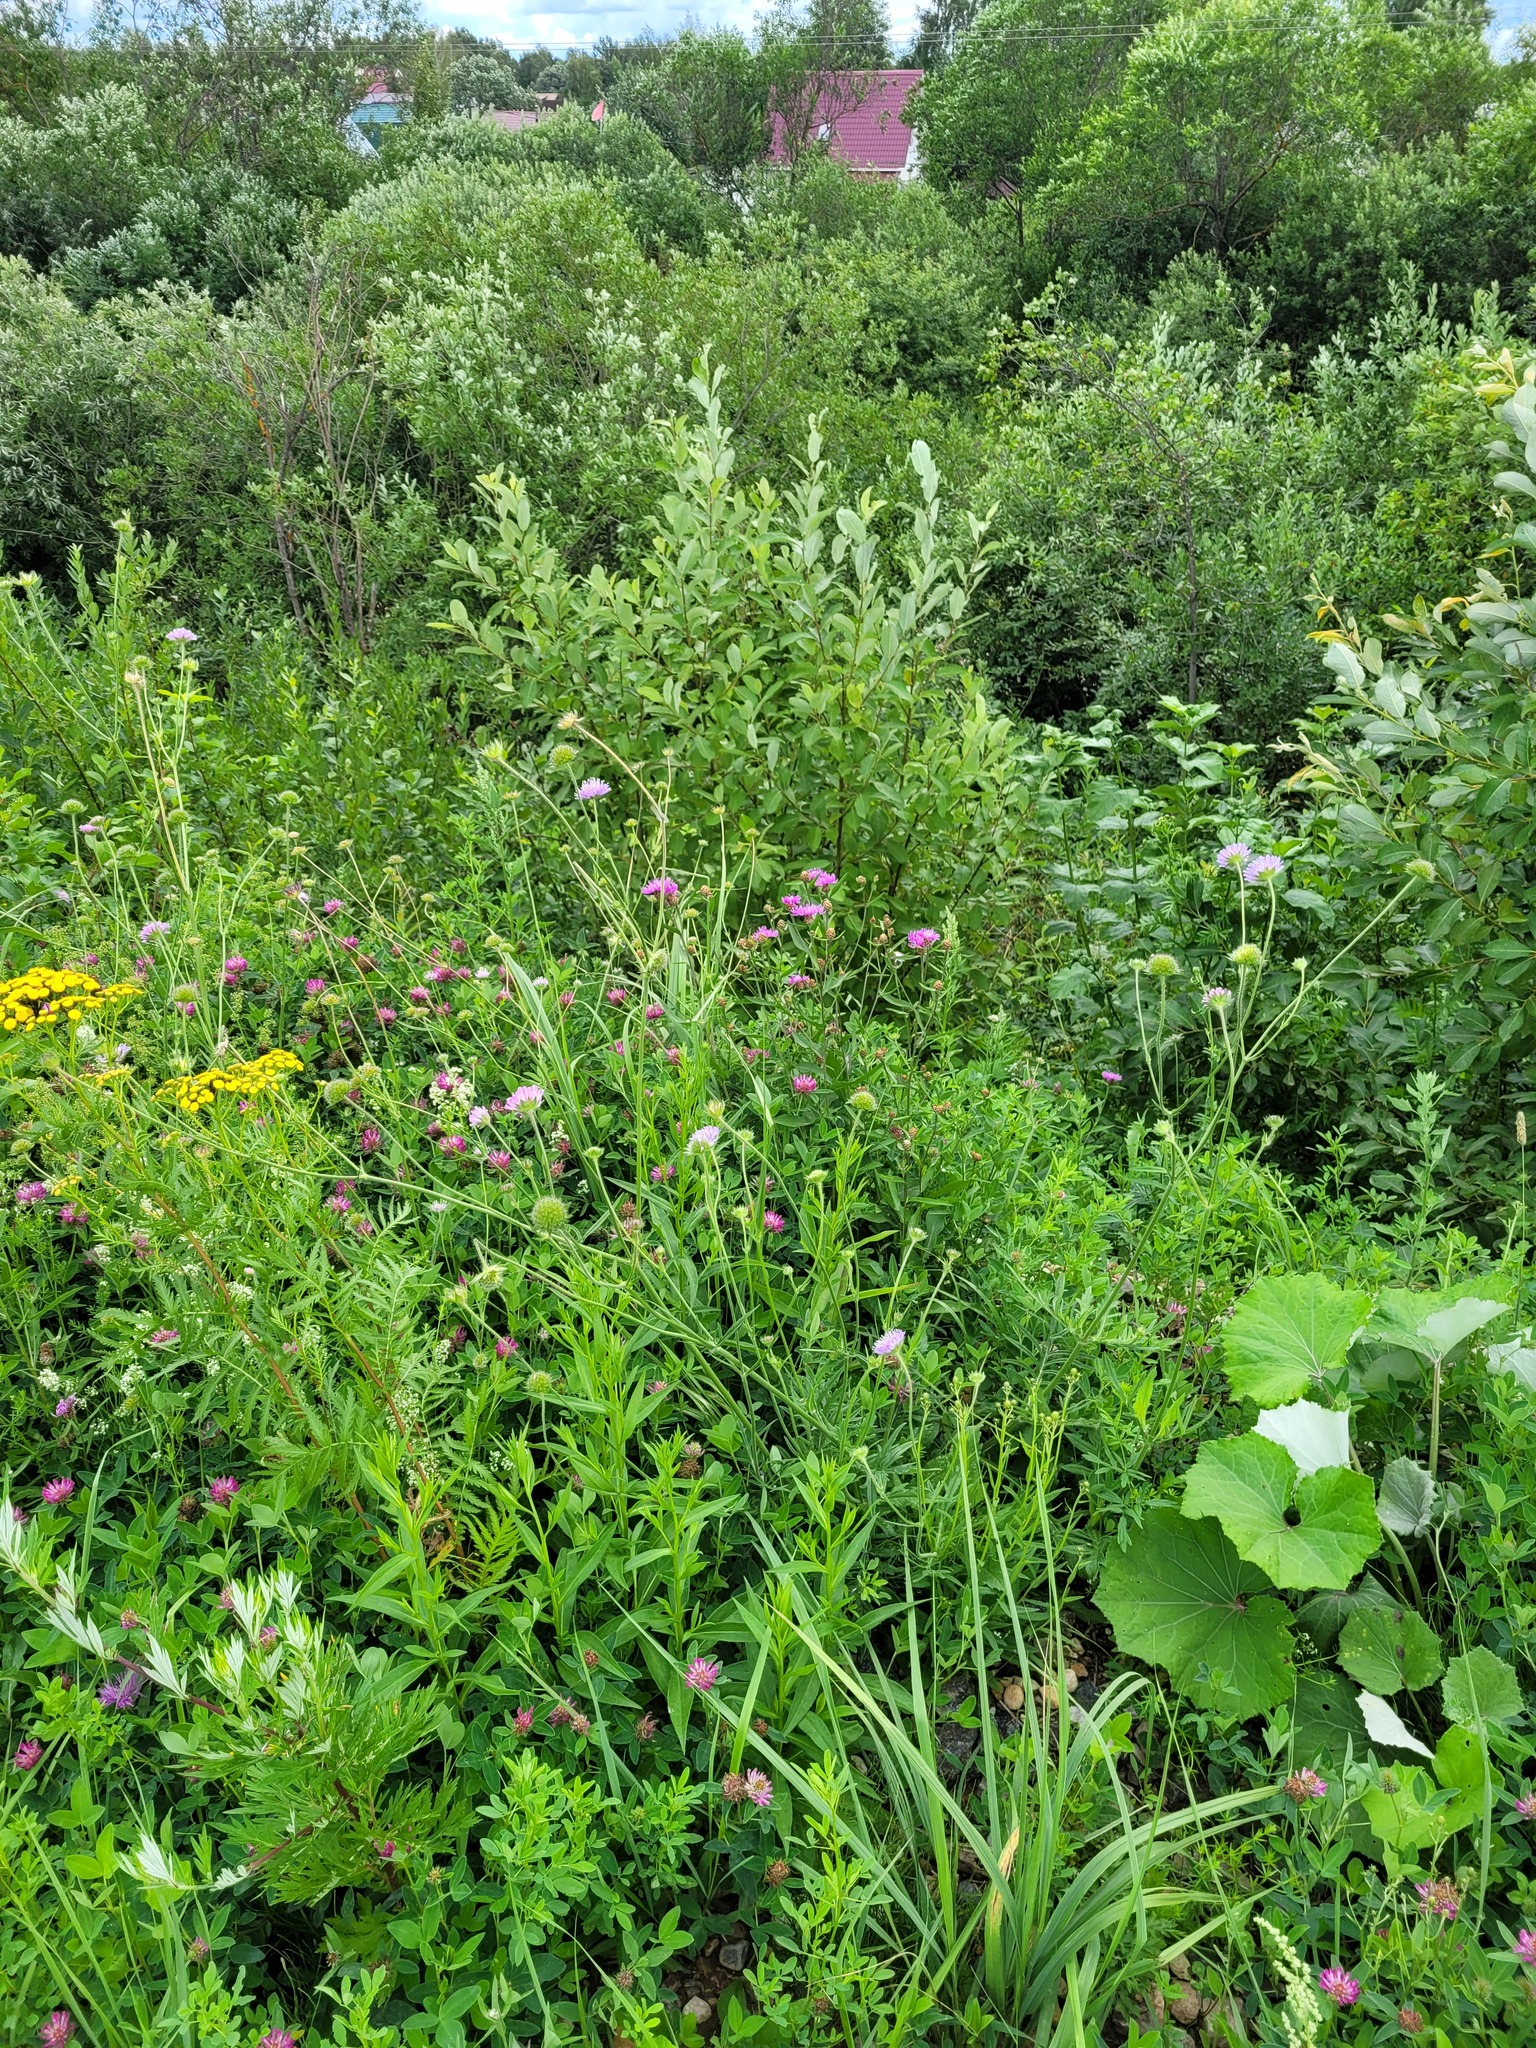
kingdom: Plantae
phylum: Tracheophyta
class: Magnoliopsida
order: Dipsacales
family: Caprifoliaceae
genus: Knautia
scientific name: Knautia arvensis
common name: Field scabiosa
